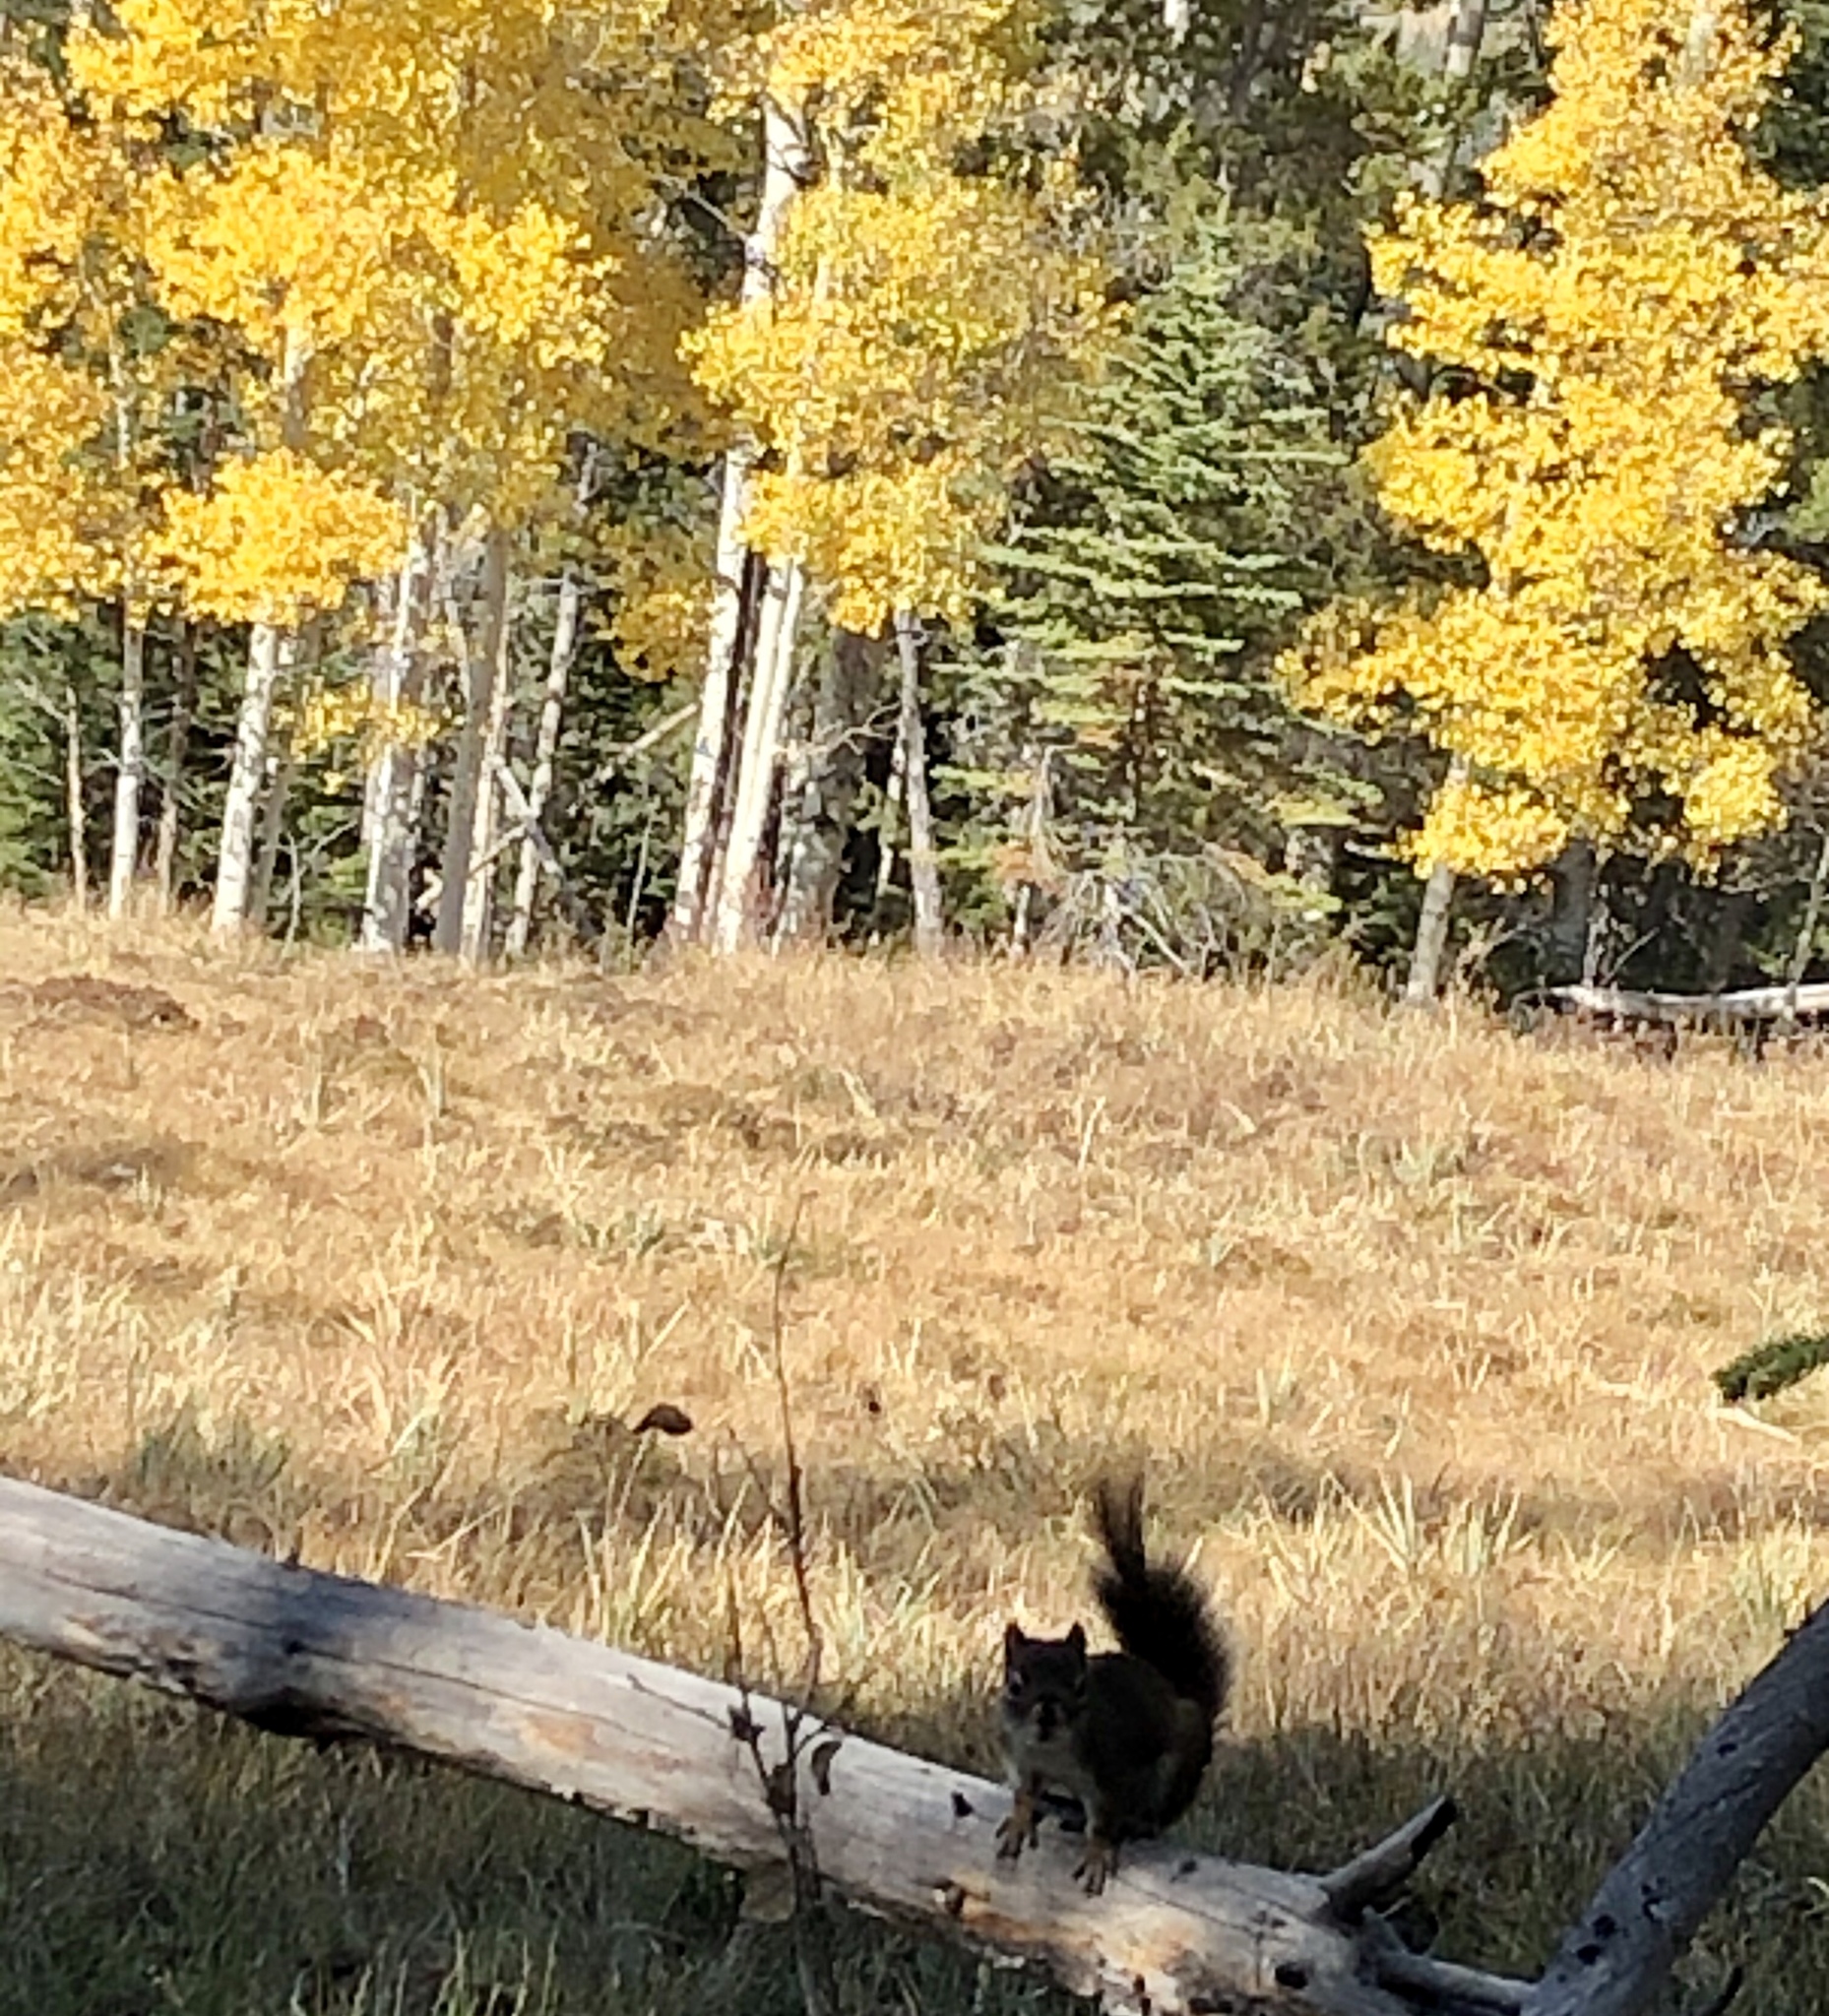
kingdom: Animalia
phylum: Chordata
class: Mammalia
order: Rodentia
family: Sciuridae
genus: Tamiasciurus
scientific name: Tamiasciurus hudsonicus
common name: Red squirrel
